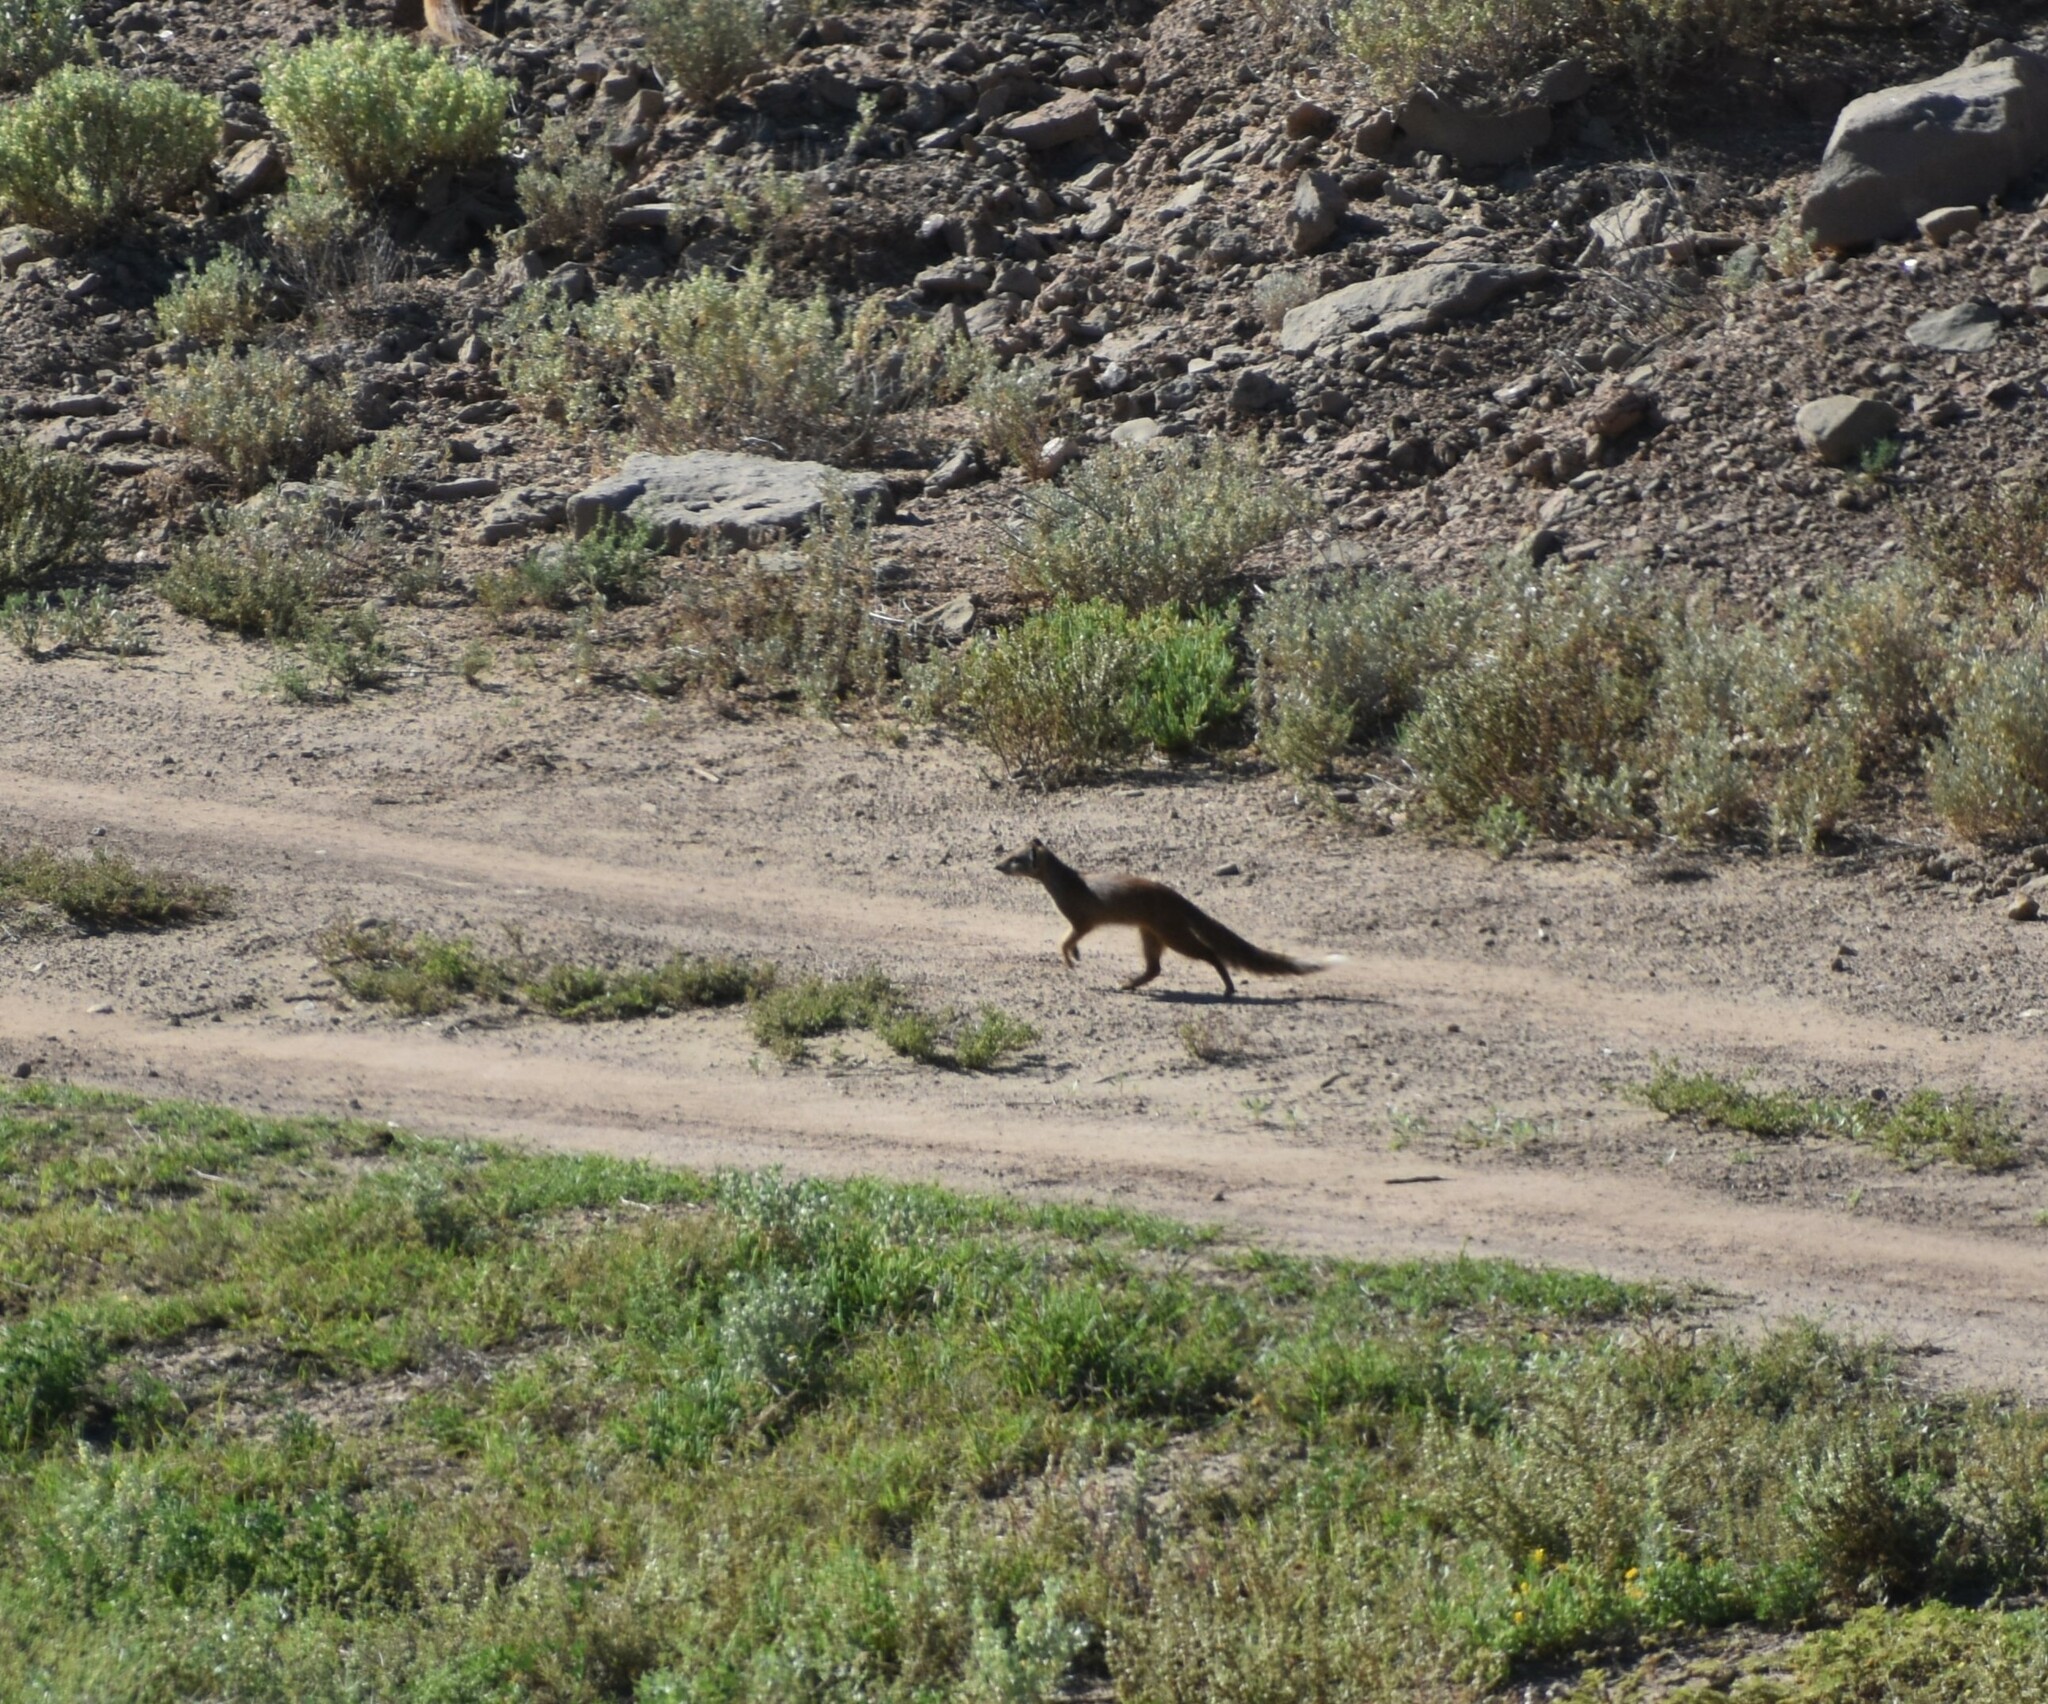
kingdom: Animalia
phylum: Chordata
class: Mammalia
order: Carnivora
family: Herpestidae
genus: Cynictis
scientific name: Cynictis penicillata
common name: Yellow mongoose
